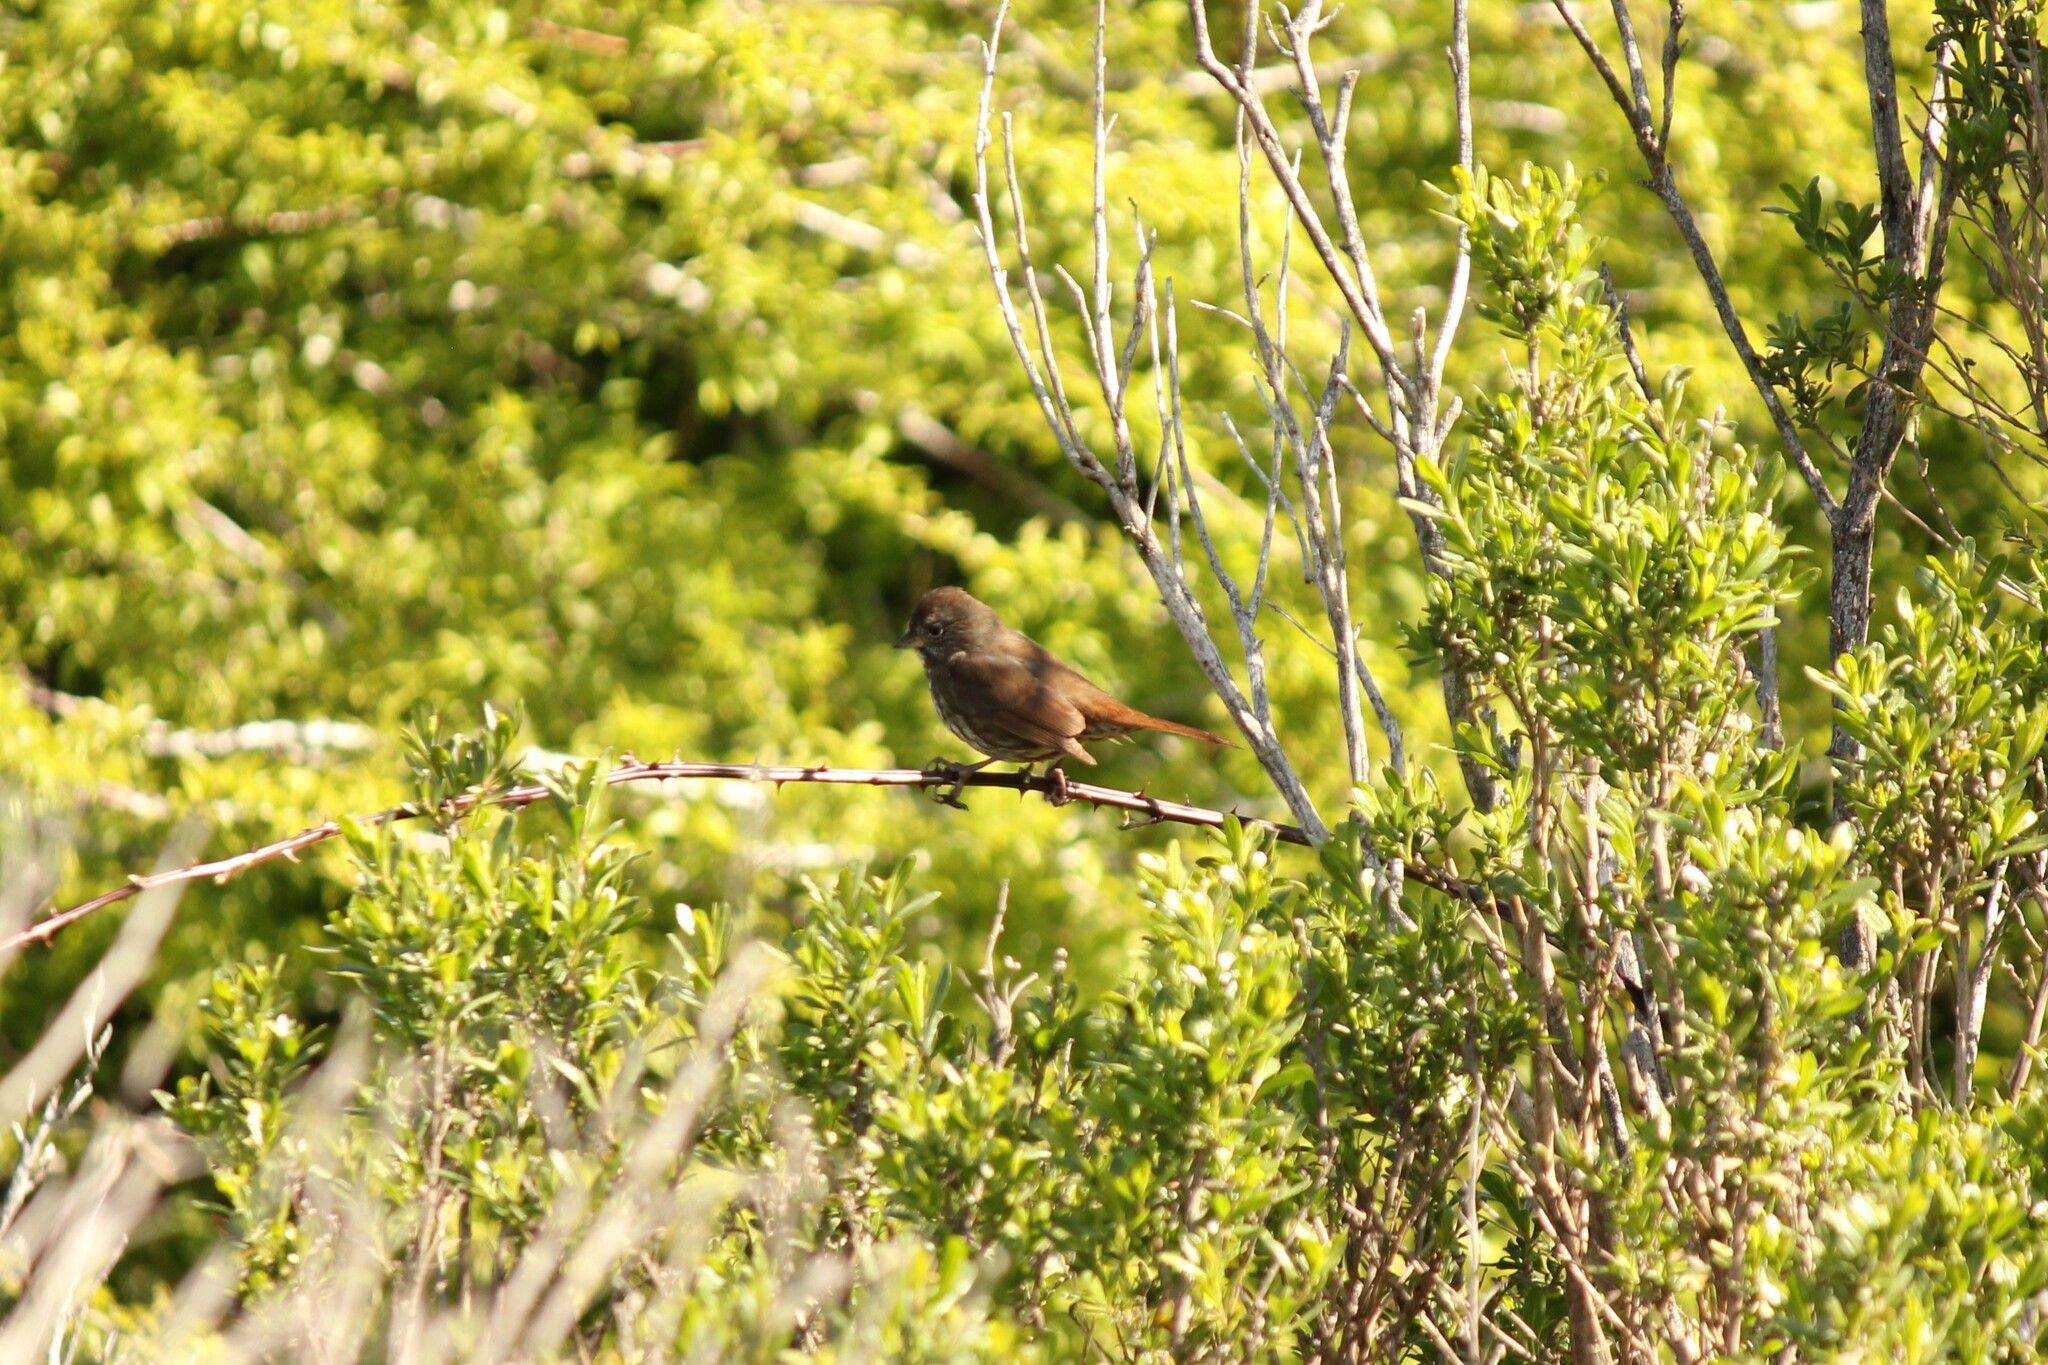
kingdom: Animalia
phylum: Chordata
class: Aves
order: Passeriformes
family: Passerellidae
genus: Passerella
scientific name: Passerella iliaca
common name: Fox sparrow
